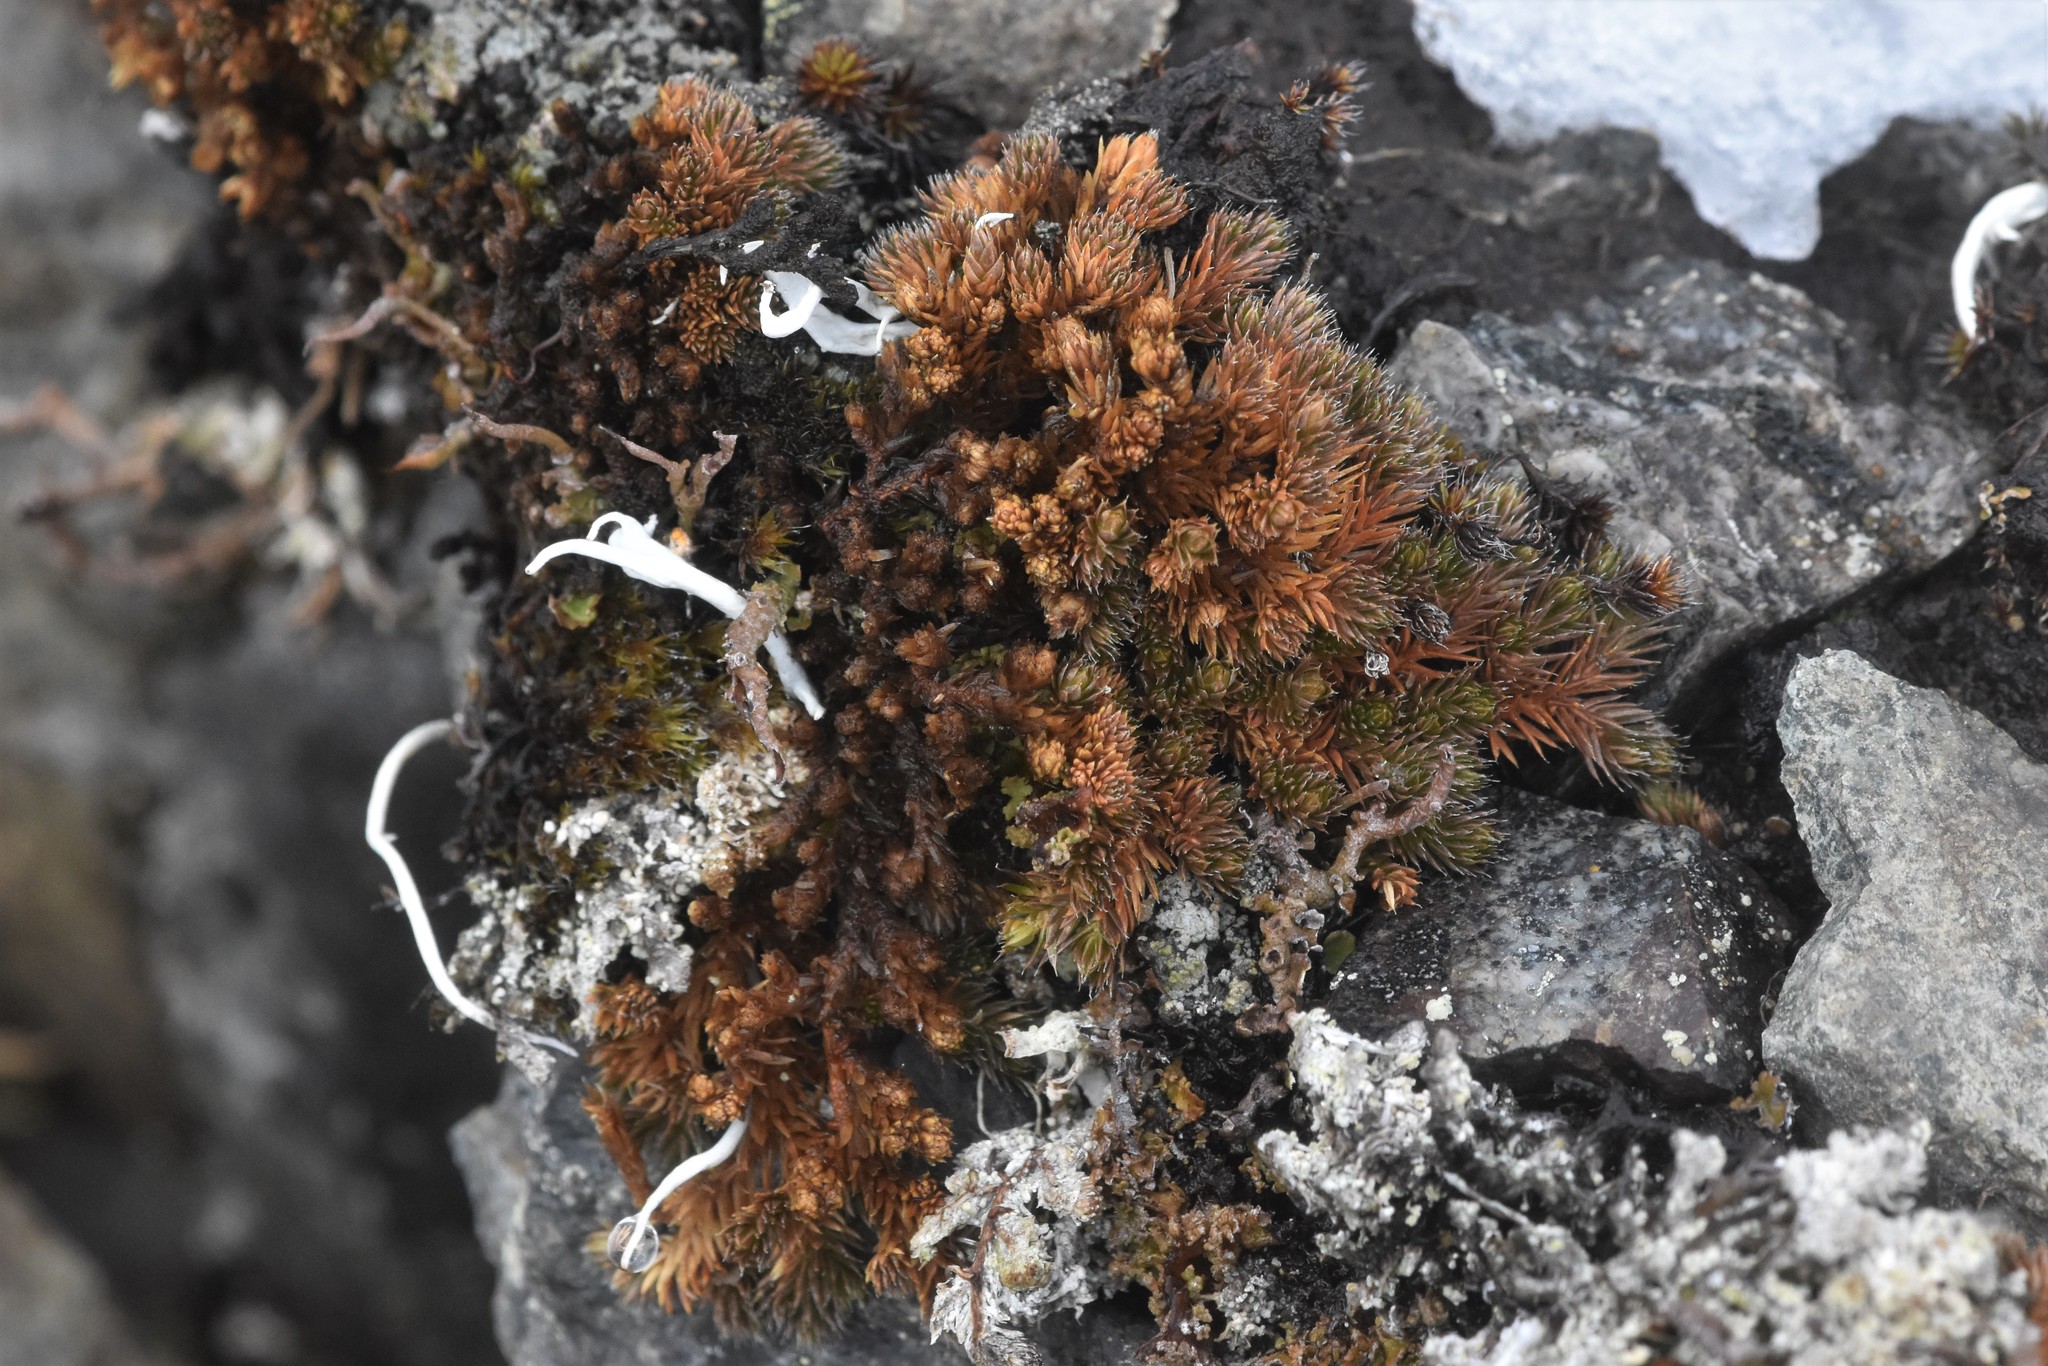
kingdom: Plantae
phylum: Tracheophyta
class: Lycopodiopsida
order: Selaginellales
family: Selaginellaceae
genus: Selaginella
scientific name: Selaginella densa
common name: Mountain spike-moss
